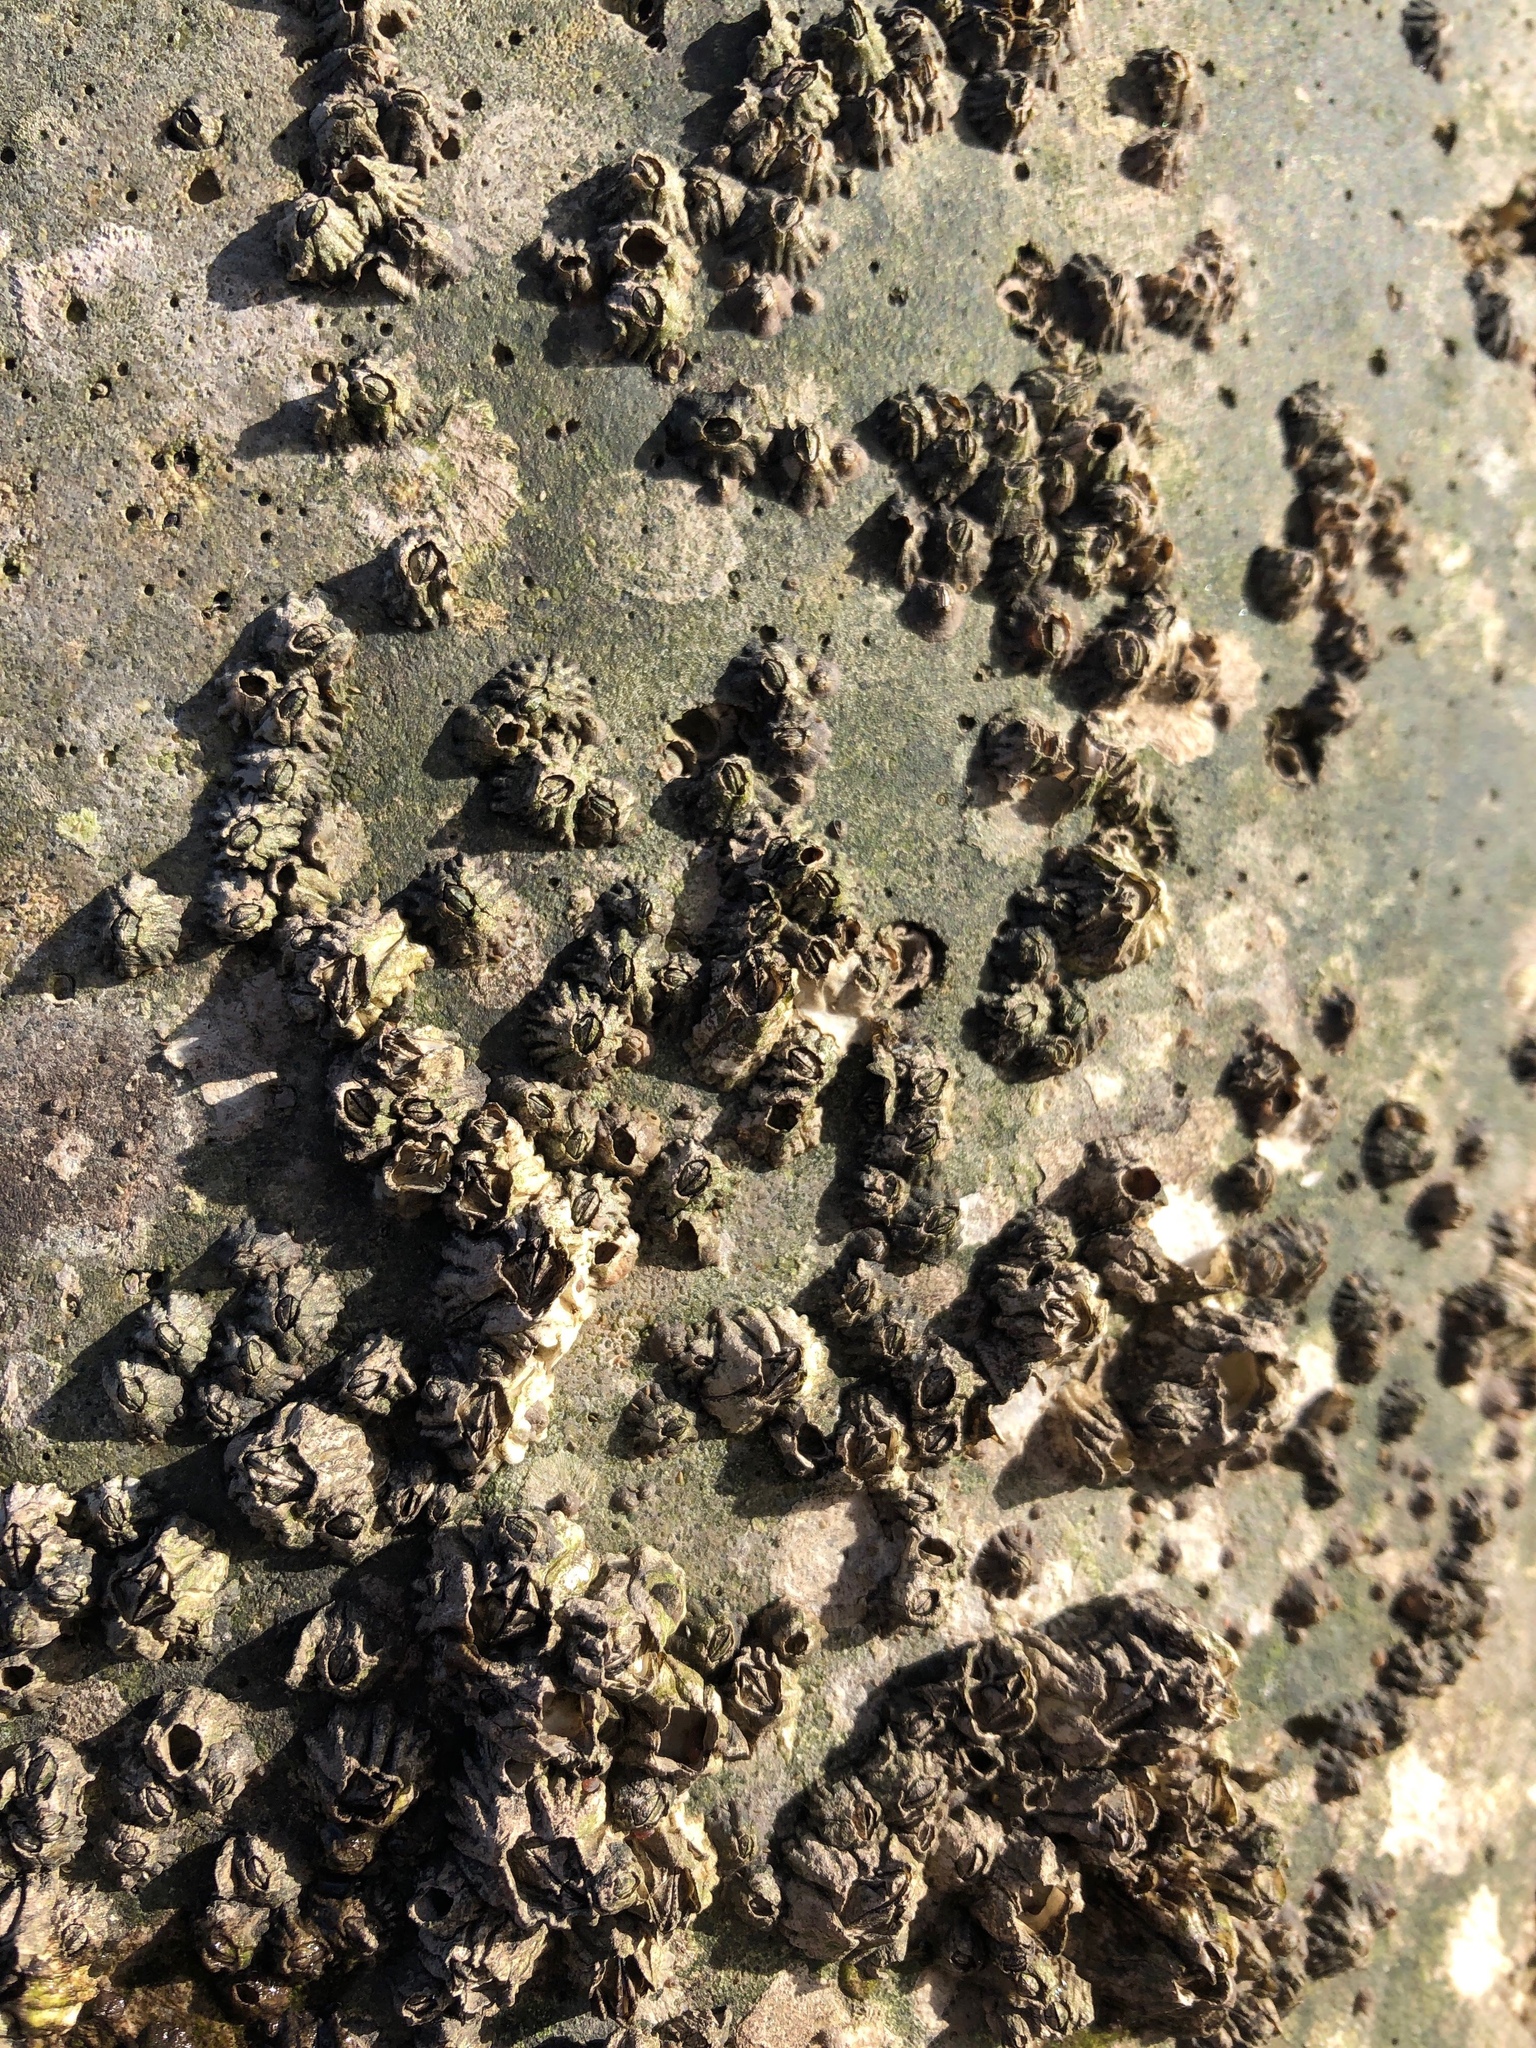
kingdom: Animalia
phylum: Arthropoda
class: Maxillopoda
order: Sessilia
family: Balanidae
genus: Balanus
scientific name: Balanus glandula
